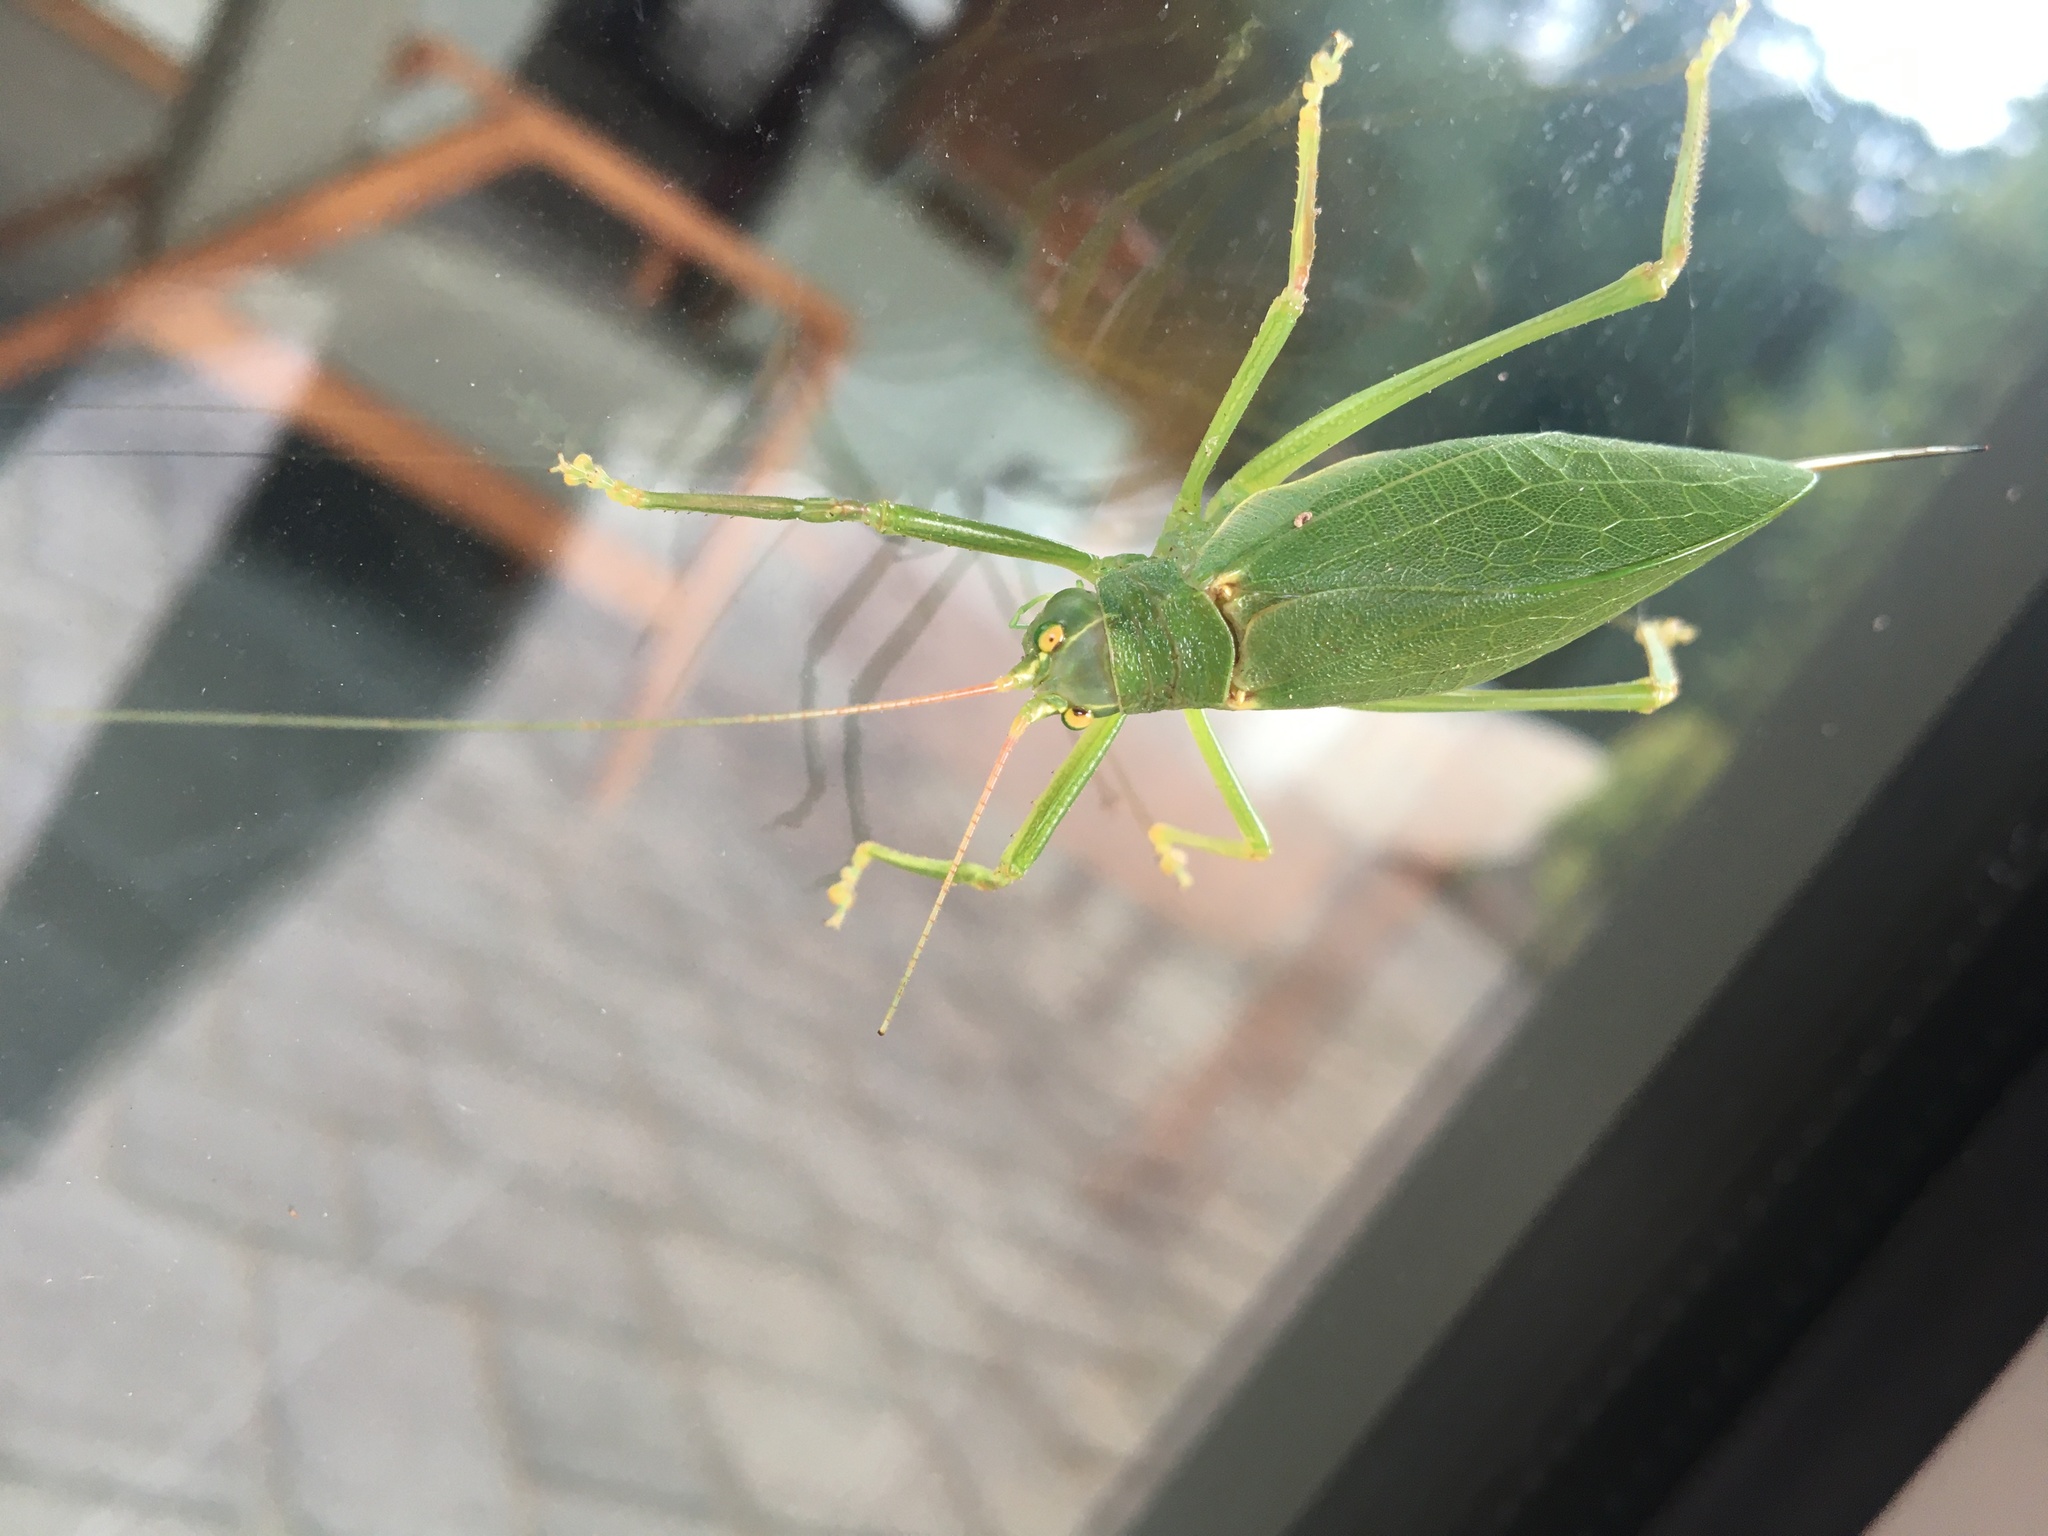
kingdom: Animalia
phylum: Arthropoda
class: Insecta
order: Orthoptera
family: Tettigoniidae
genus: Pterophylla
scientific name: Pterophylla camellifolia
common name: Common true katydid
